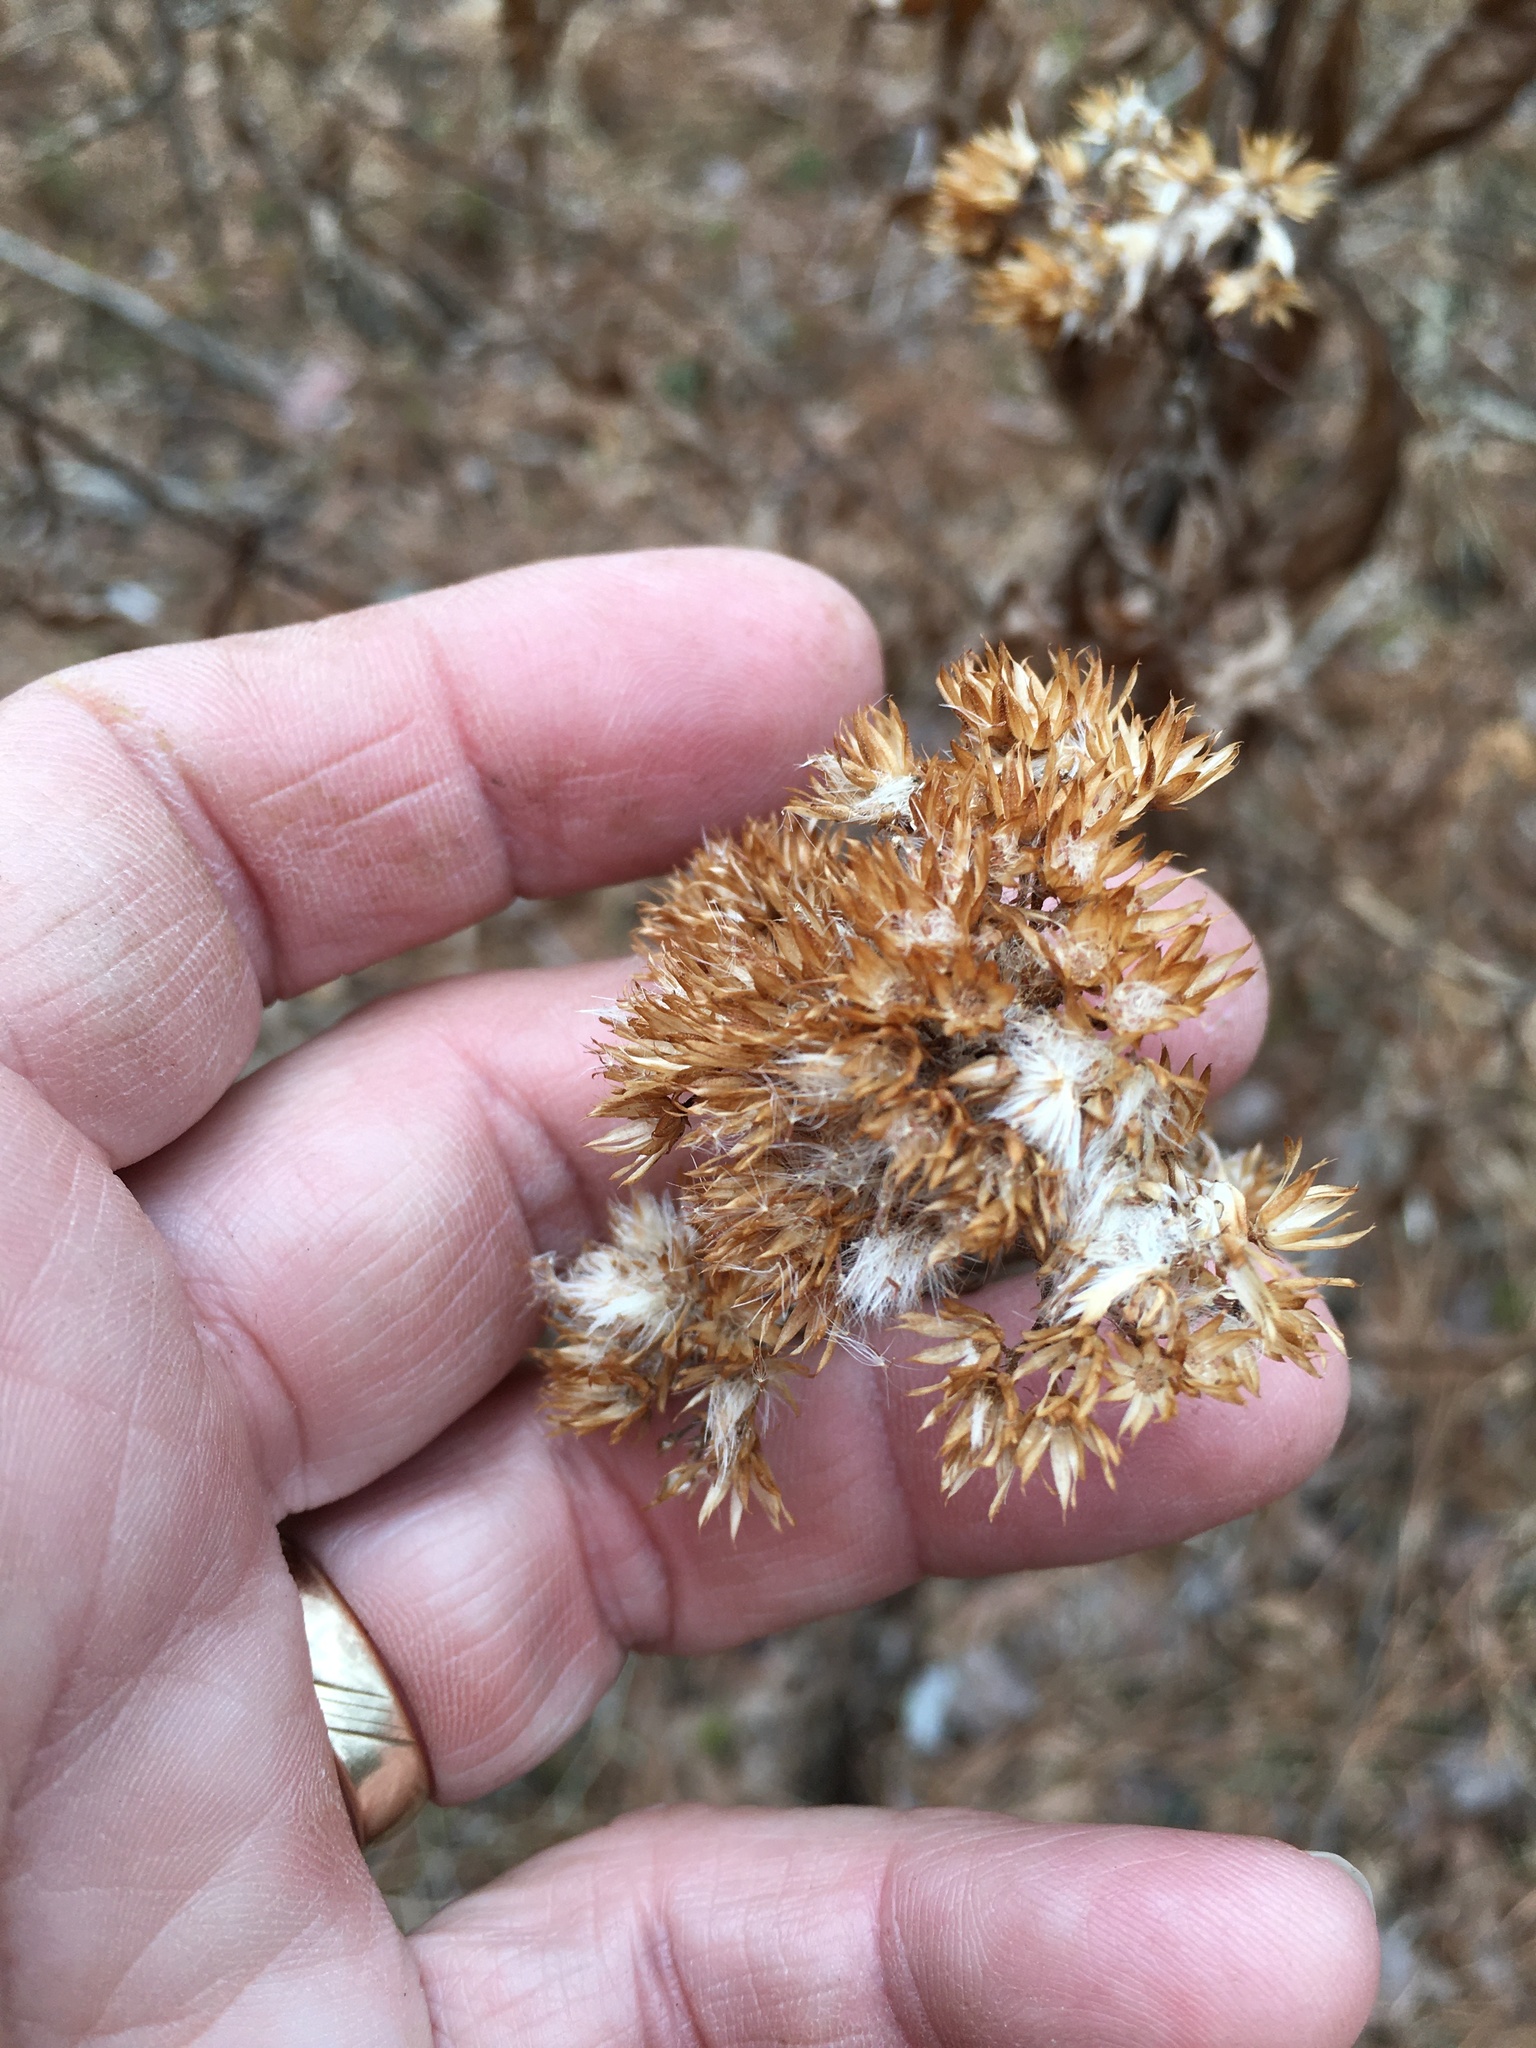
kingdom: Plantae
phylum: Tracheophyta
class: Magnoliopsida
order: Asterales
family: Asteraceae
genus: Pluchea
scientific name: Pluchea camphorata
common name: Camphor pluchea
